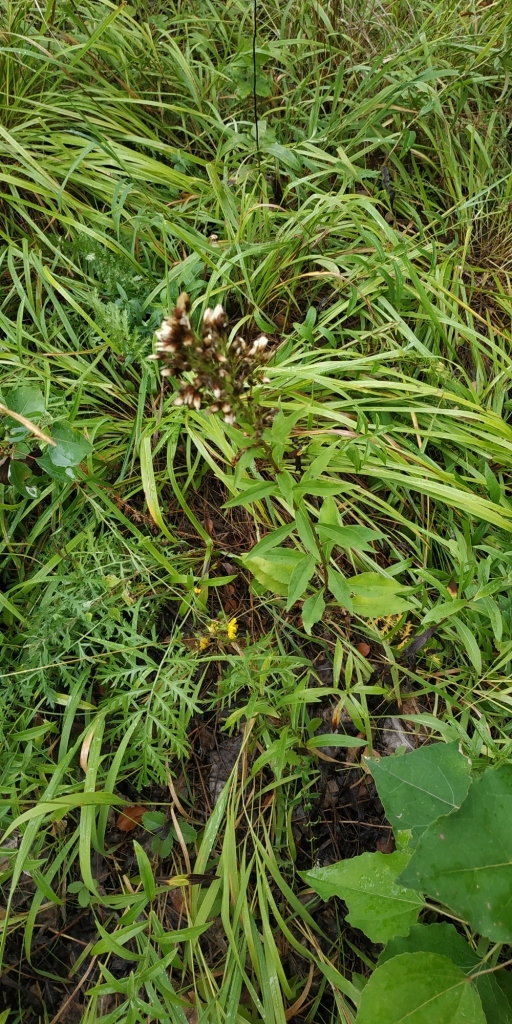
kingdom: Plantae
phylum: Tracheophyta
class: Magnoliopsida
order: Asterales
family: Asteraceae
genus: Solidago
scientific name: Solidago virgaurea
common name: Goldenrod
